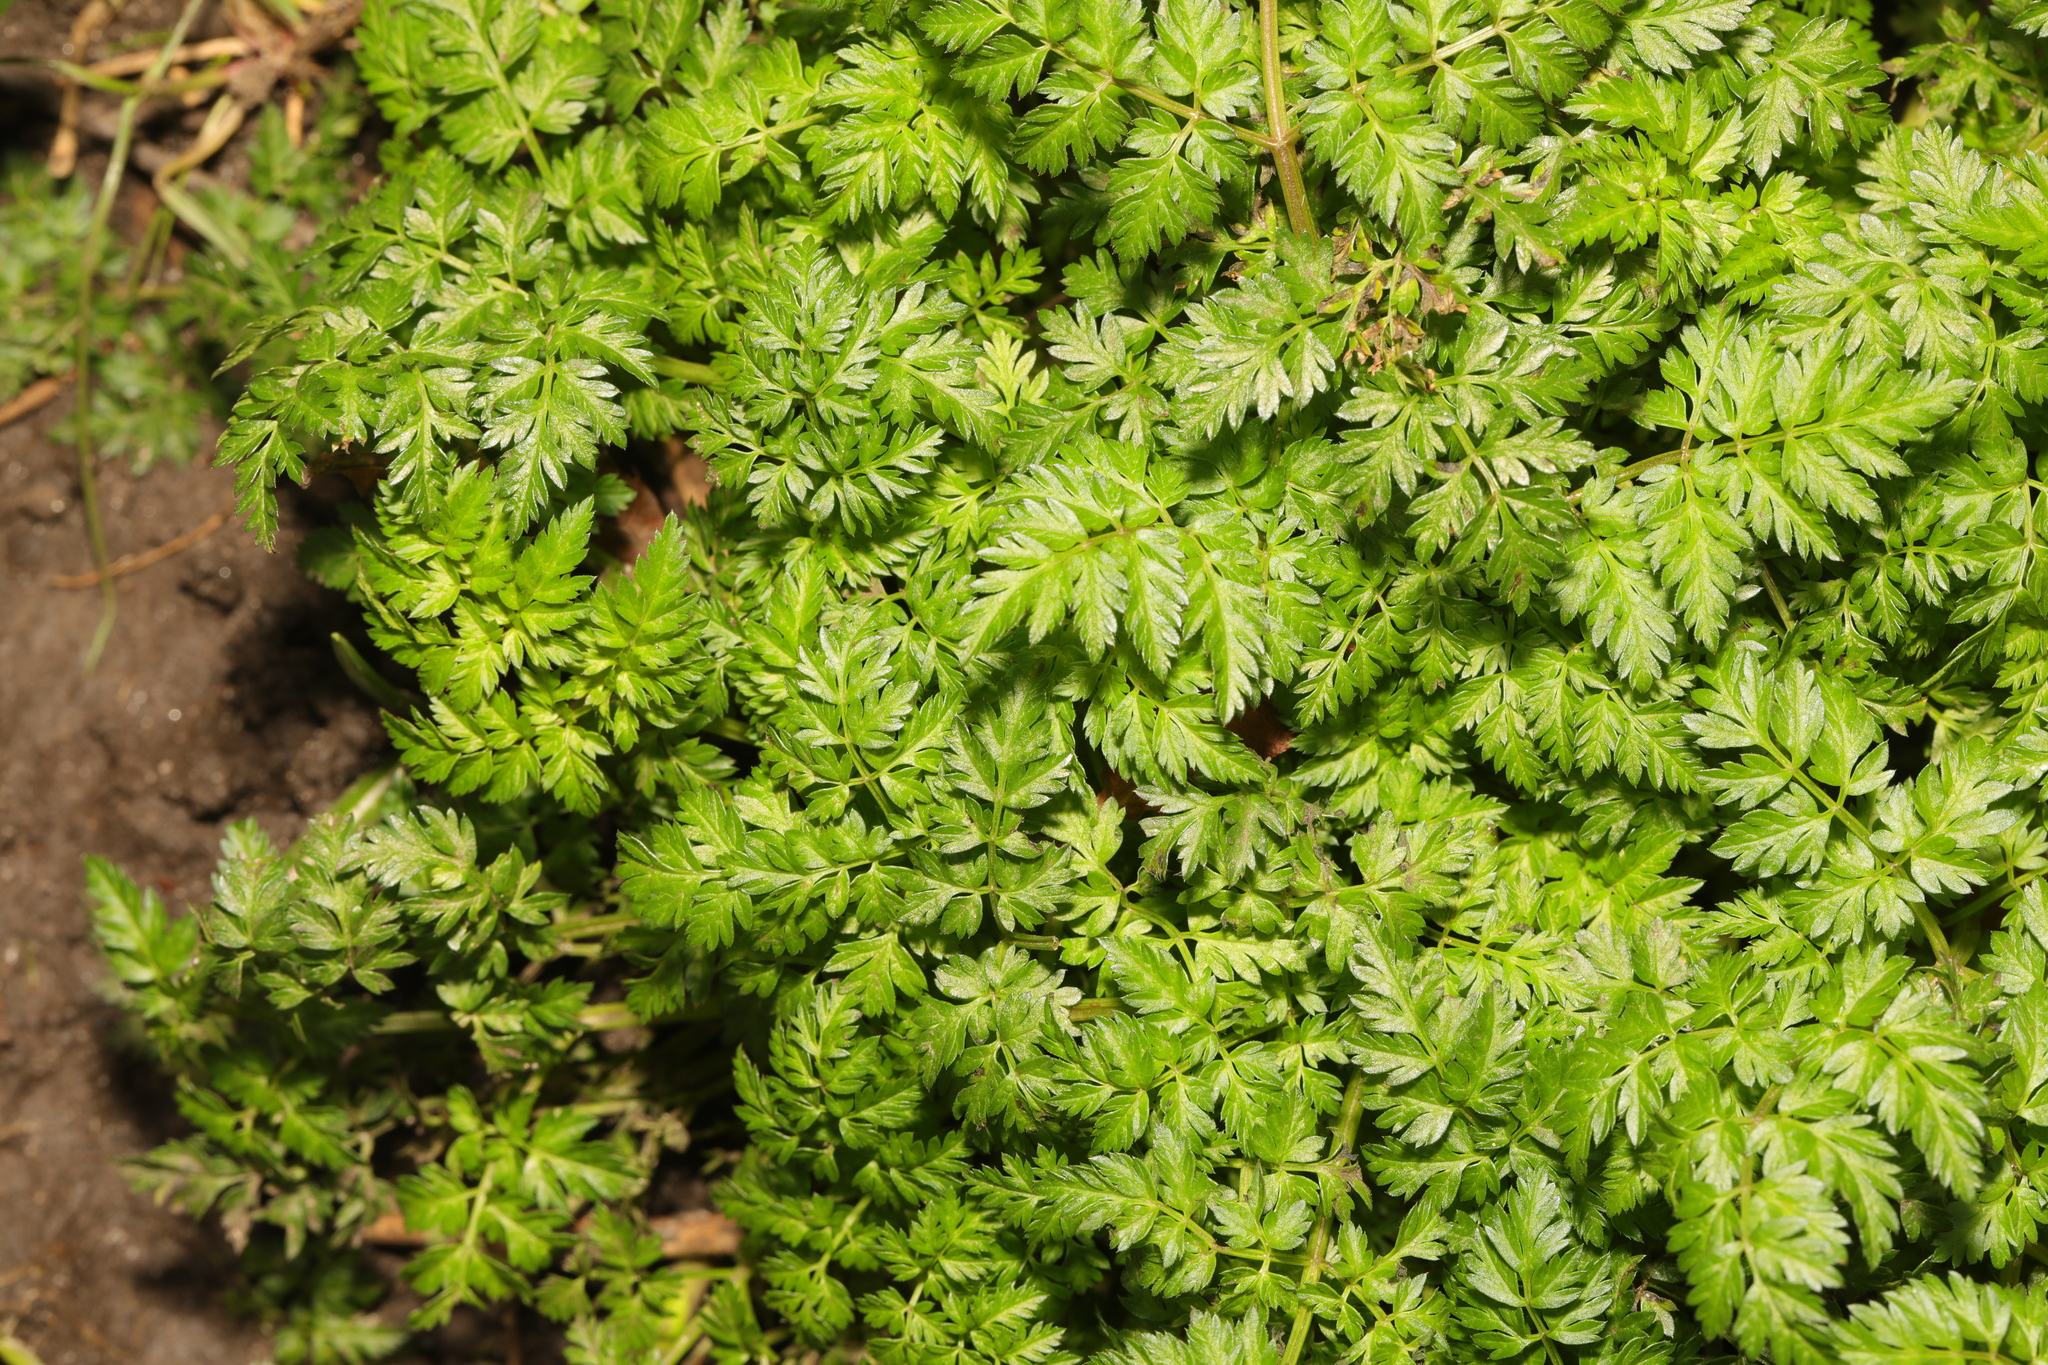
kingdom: Plantae
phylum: Tracheophyta
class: Magnoliopsida
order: Apiales
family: Apiaceae
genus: Anthriscus
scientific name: Anthriscus sylvestris
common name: Cow parsley
